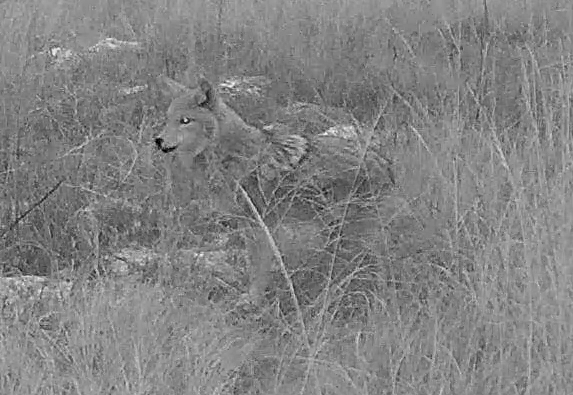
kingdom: Animalia
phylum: Chordata
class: Mammalia
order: Carnivora
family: Canidae
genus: Canis
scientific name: Canis latrans
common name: Coyote
